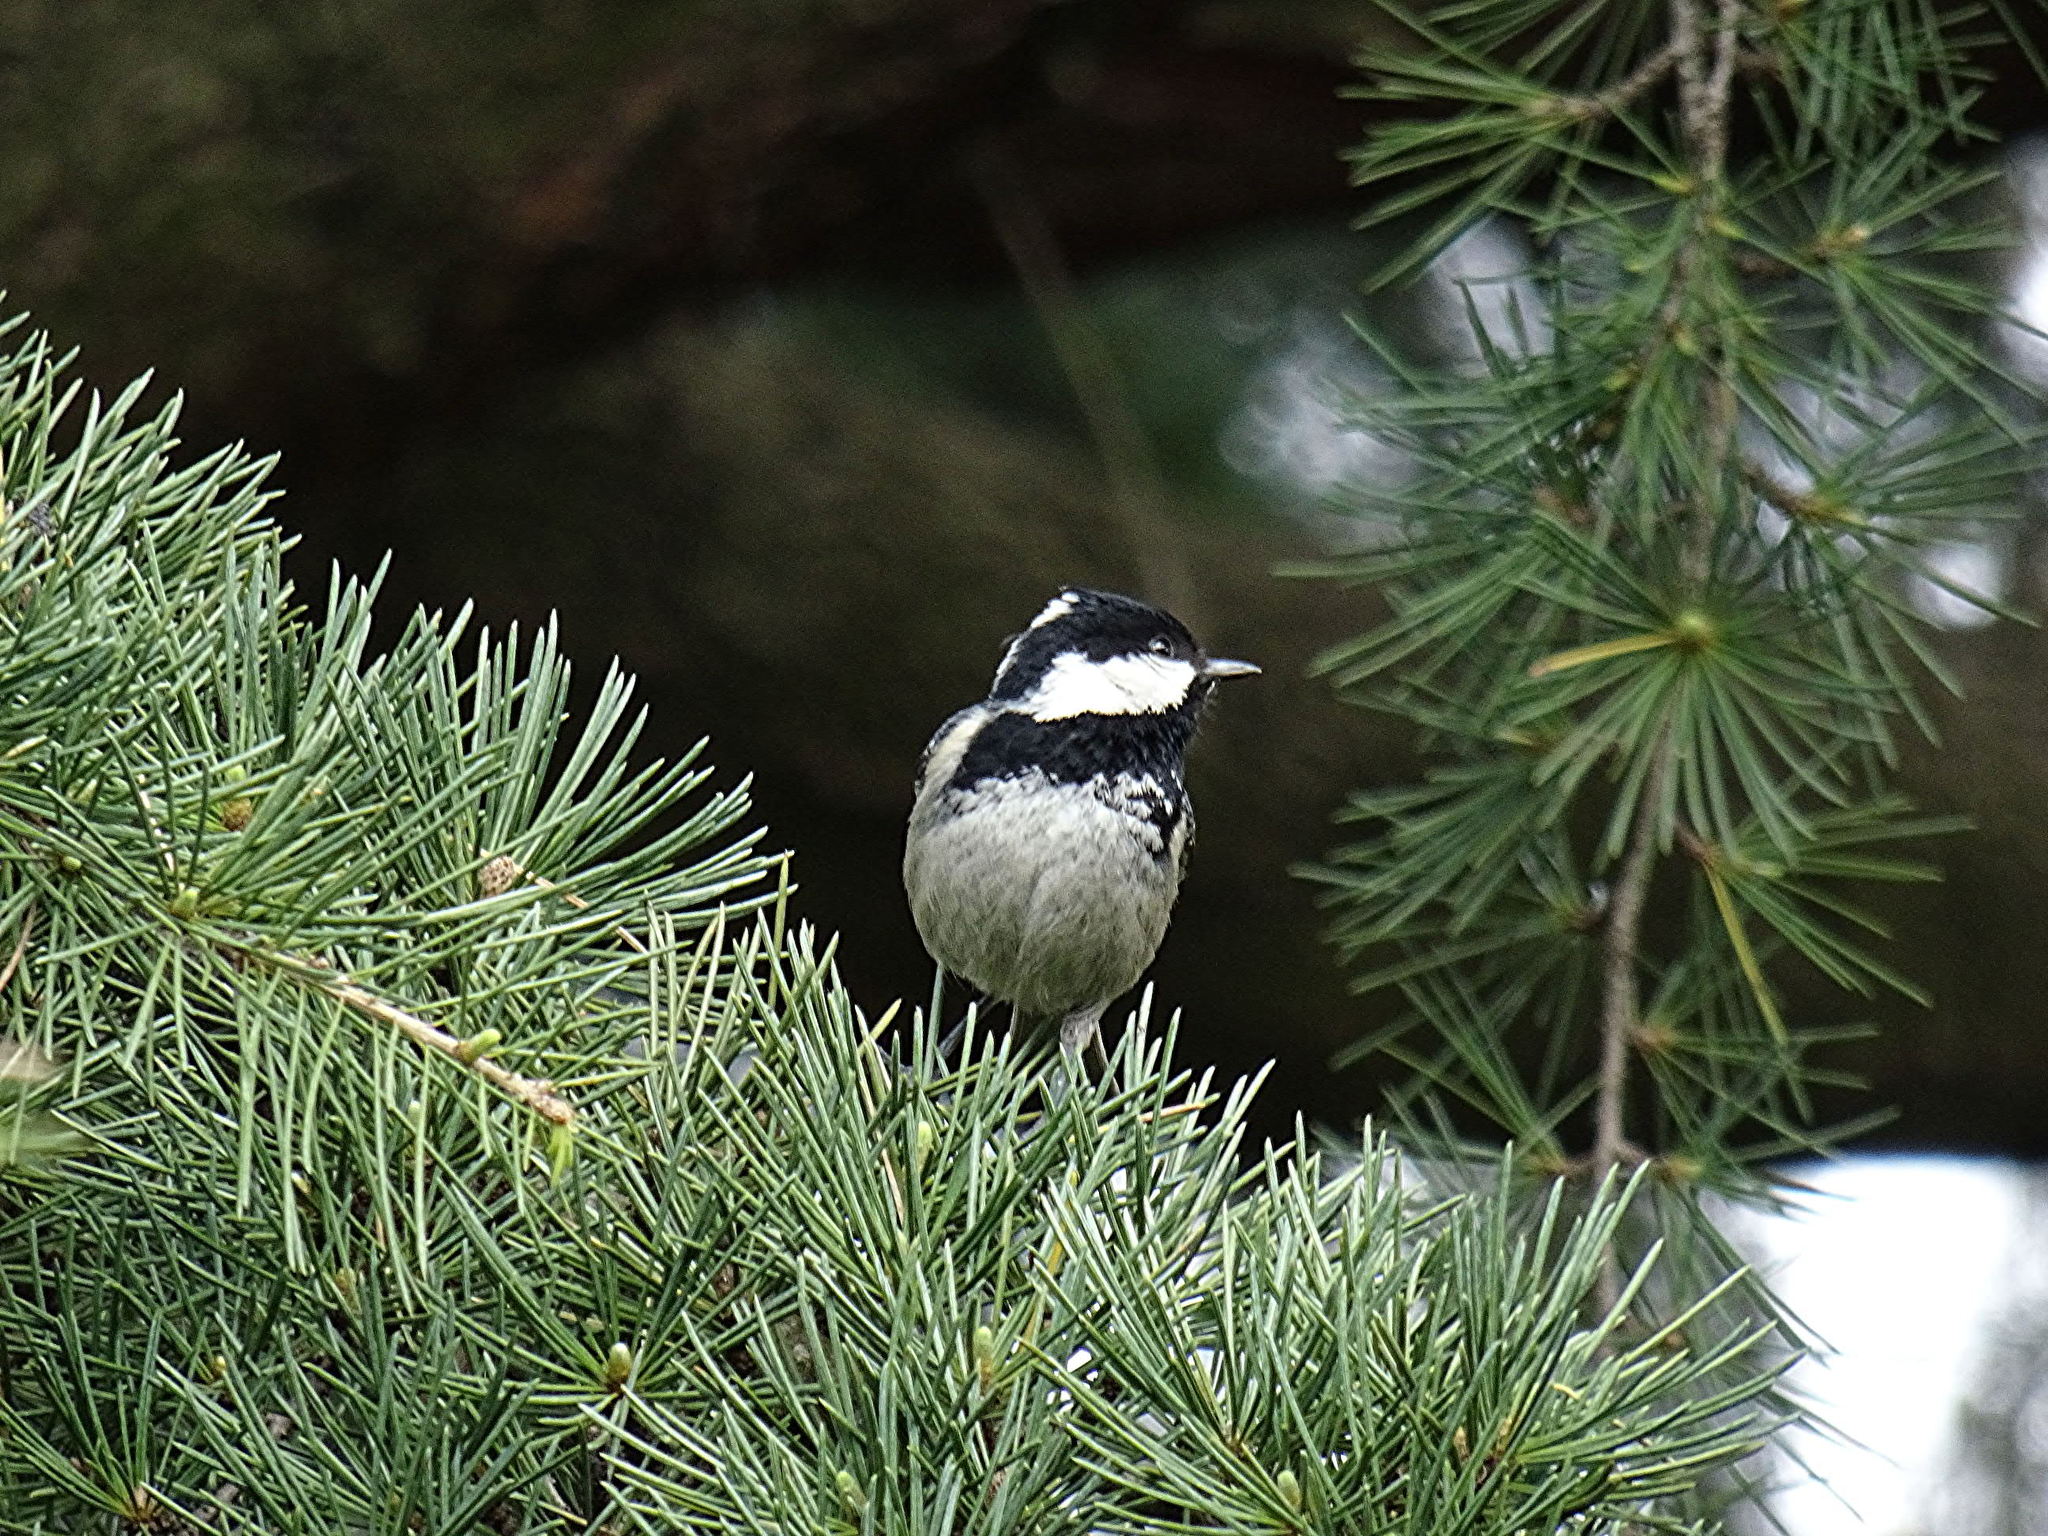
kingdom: Animalia
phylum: Chordata
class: Aves
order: Passeriformes
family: Paridae
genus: Periparus
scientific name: Periparus ater
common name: Coal tit
